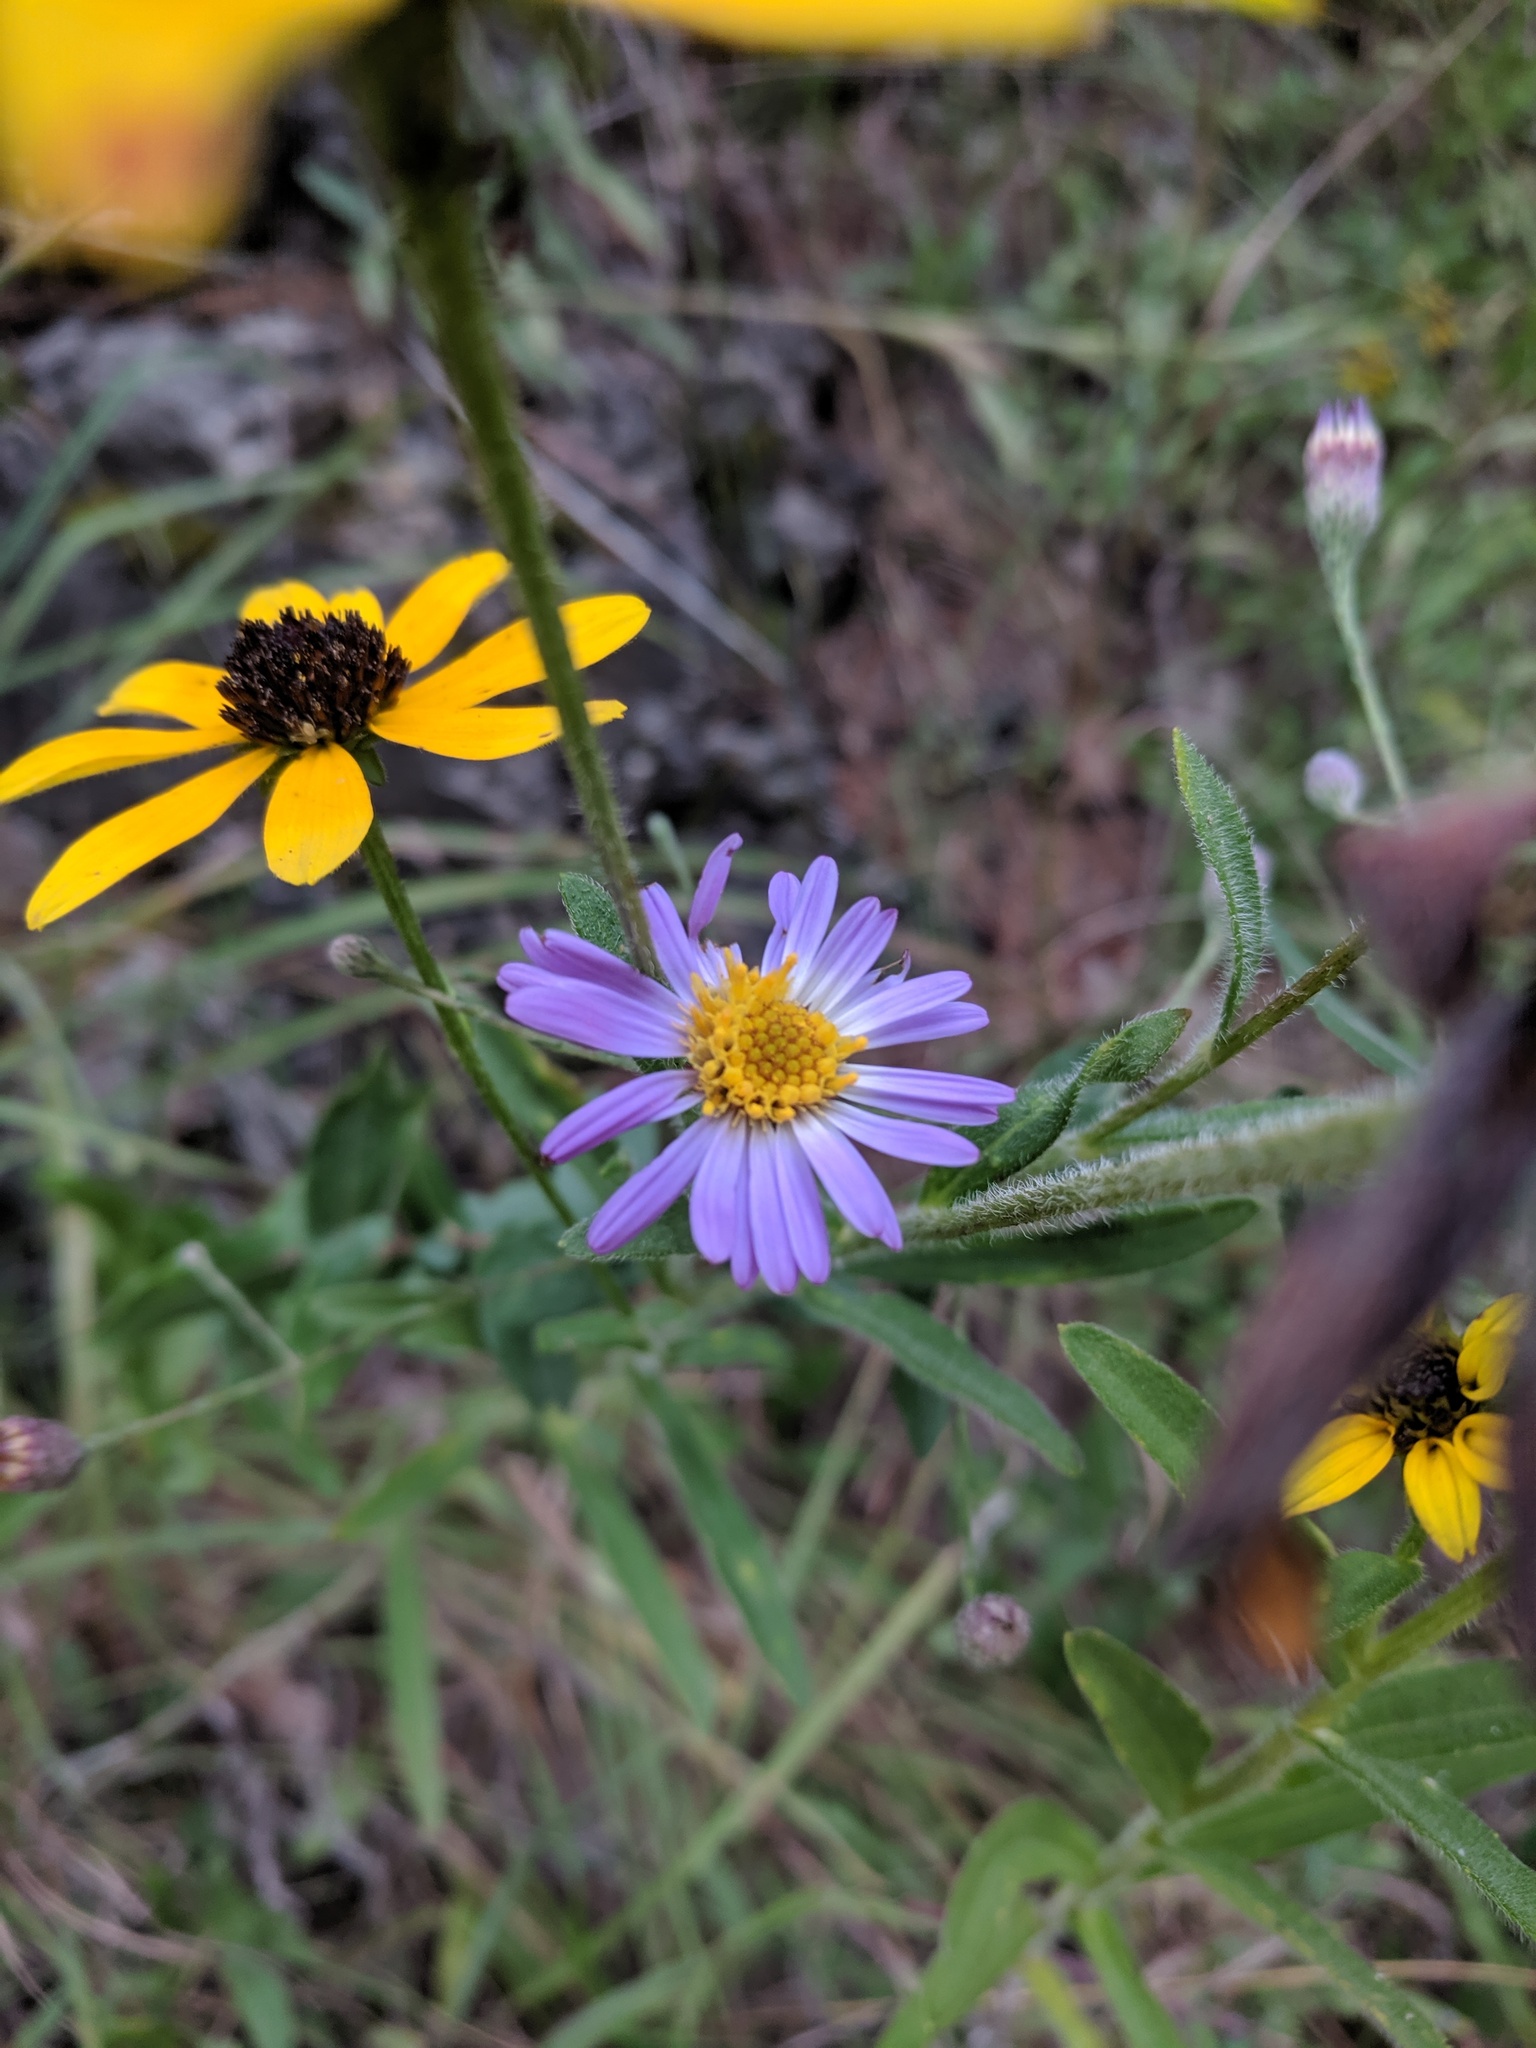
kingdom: Plantae
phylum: Tracheophyta
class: Magnoliopsida
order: Asterales
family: Asteraceae
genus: Symphyotrichum
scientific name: Symphyotrichum patens
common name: Late purple aster
